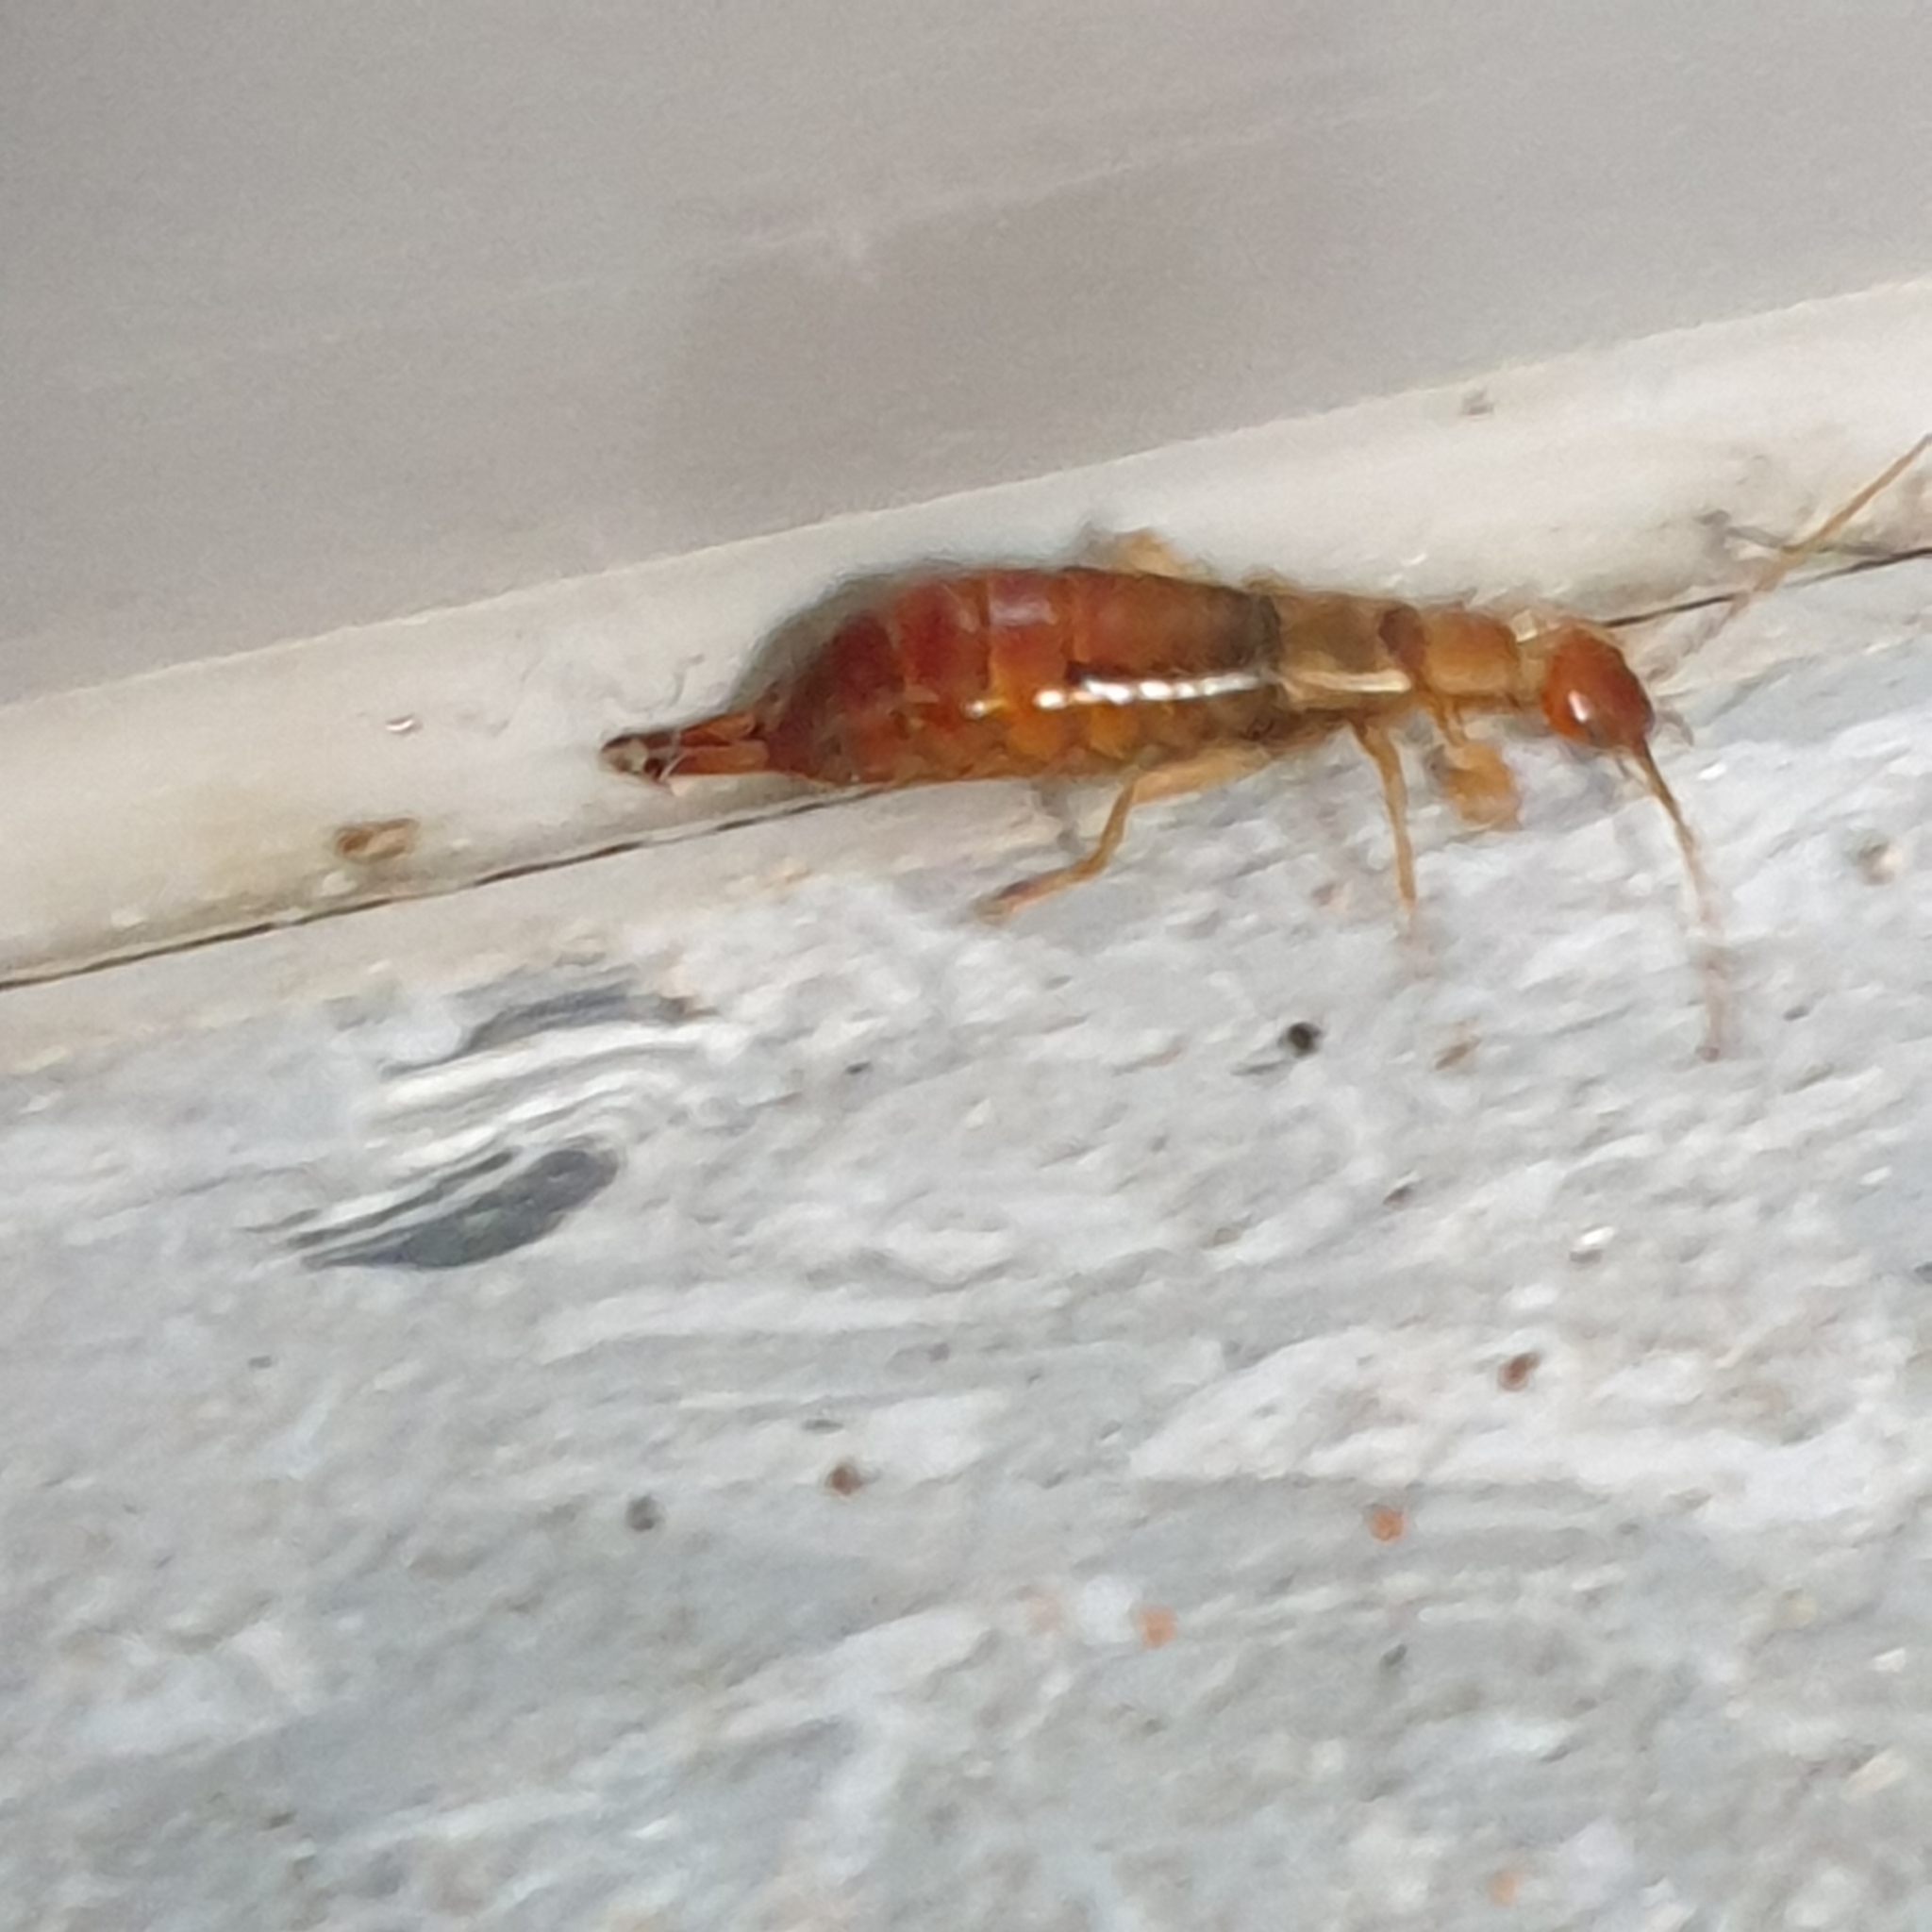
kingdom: Animalia
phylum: Arthropoda
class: Insecta
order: Dermaptera
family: Forficulidae
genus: Apterygida
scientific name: Apterygida albipennis
